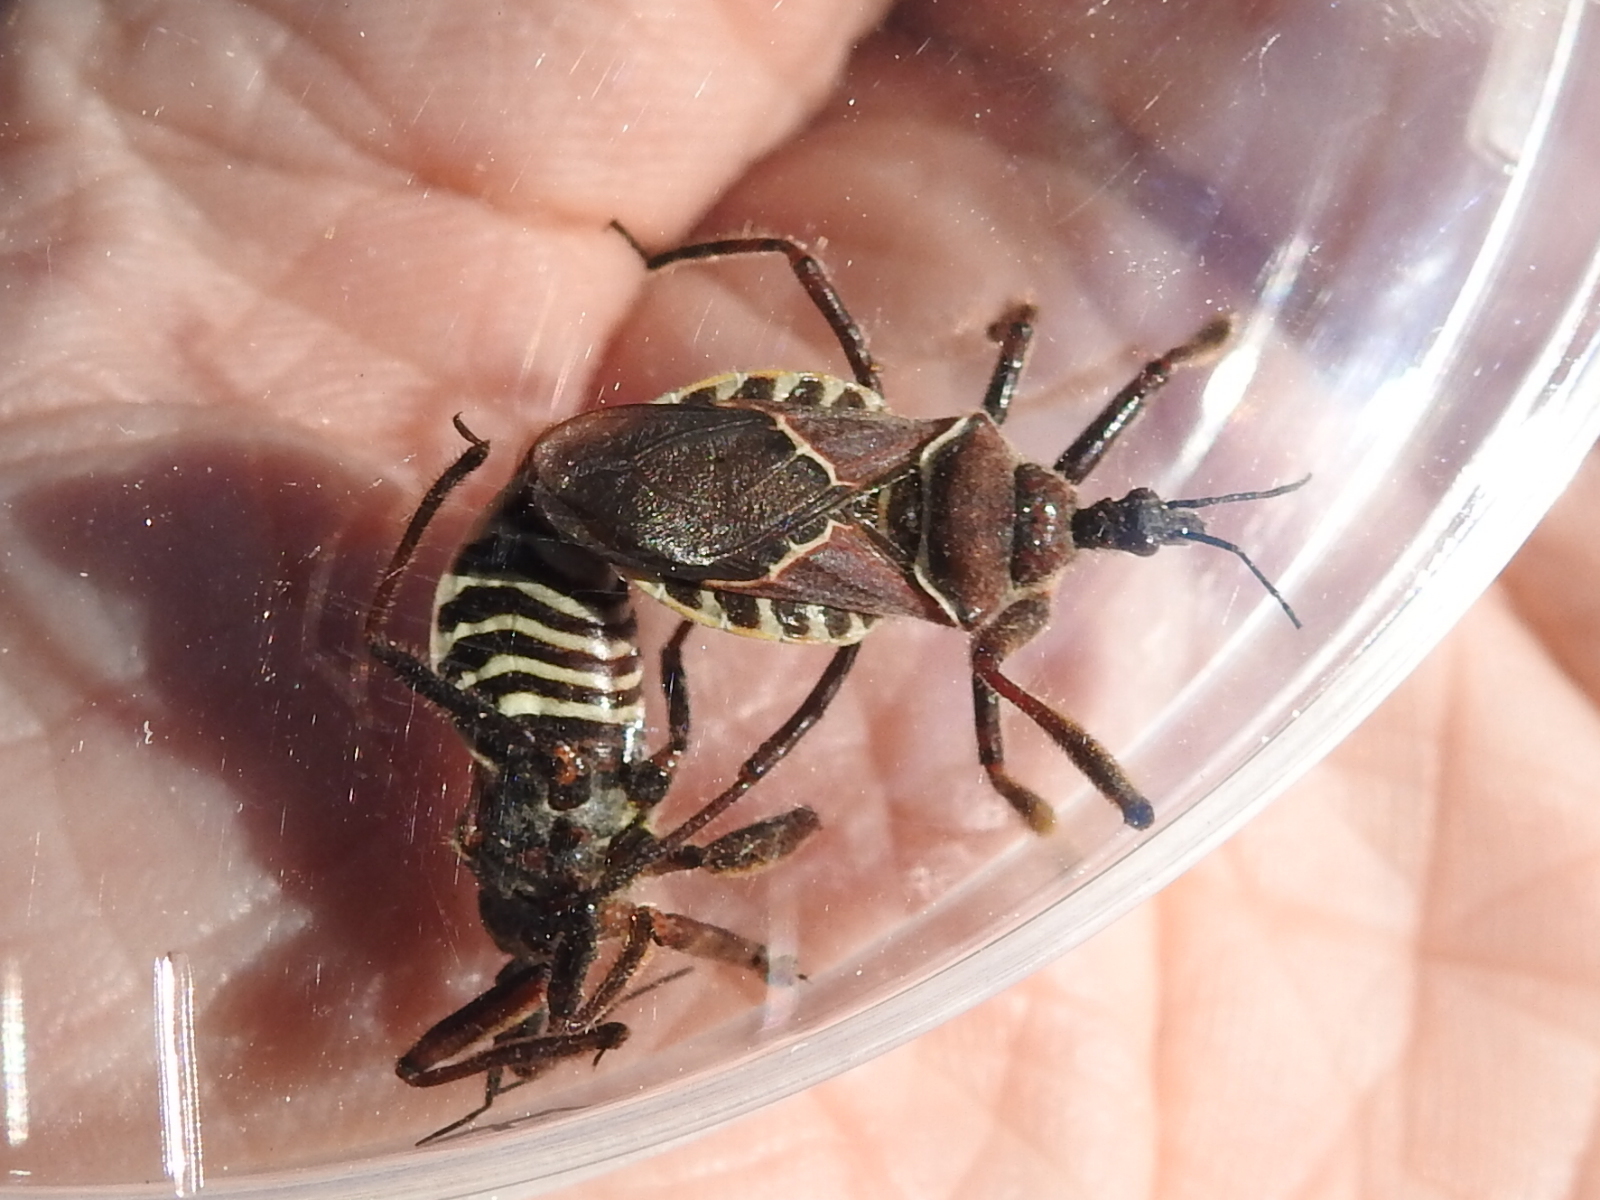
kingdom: Animalia
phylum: Arthropoda
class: Insecta
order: Hemiptera
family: Reduviidae
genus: Apiomerus
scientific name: Apiomerus spissipes
